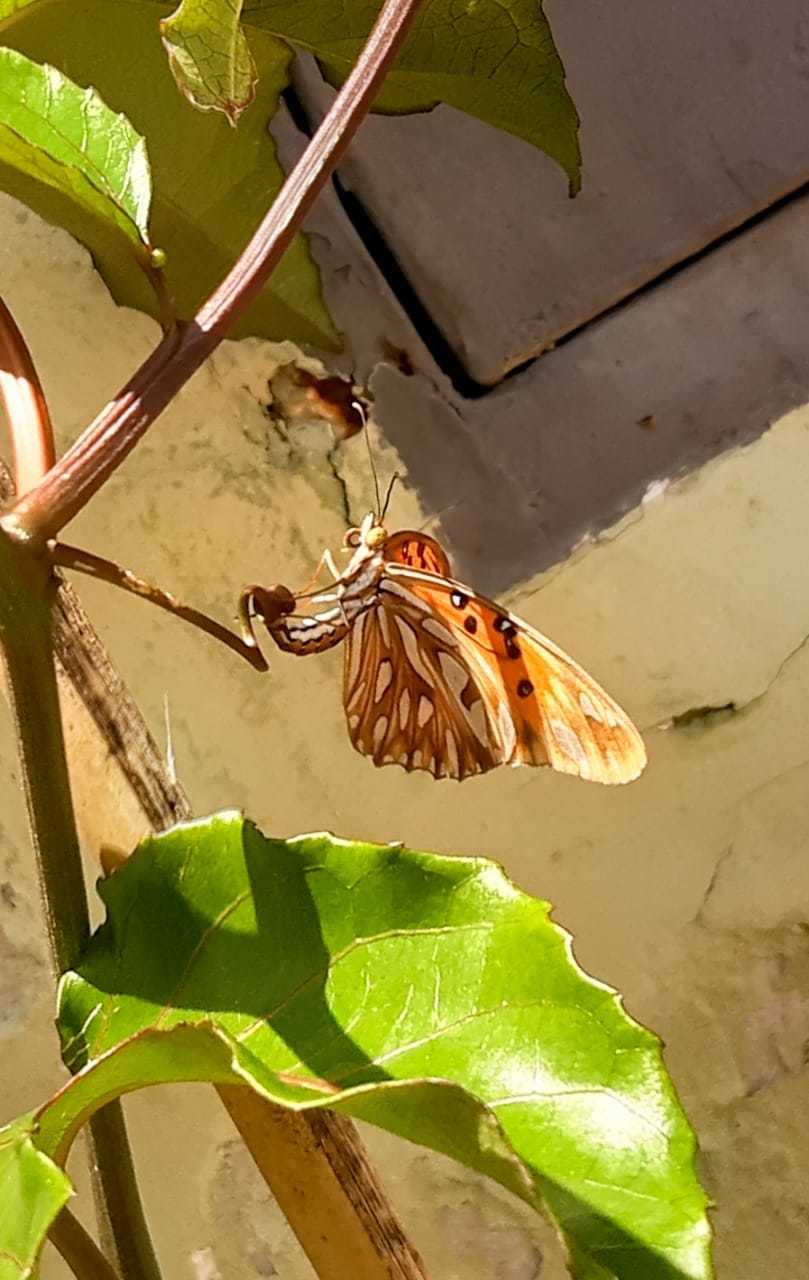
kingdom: Animalia
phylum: Arthropoda
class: Insecta
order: Lepidoptera
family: Nymphalidae
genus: Dione
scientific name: Dione vanillae
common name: Gulf fritillary
